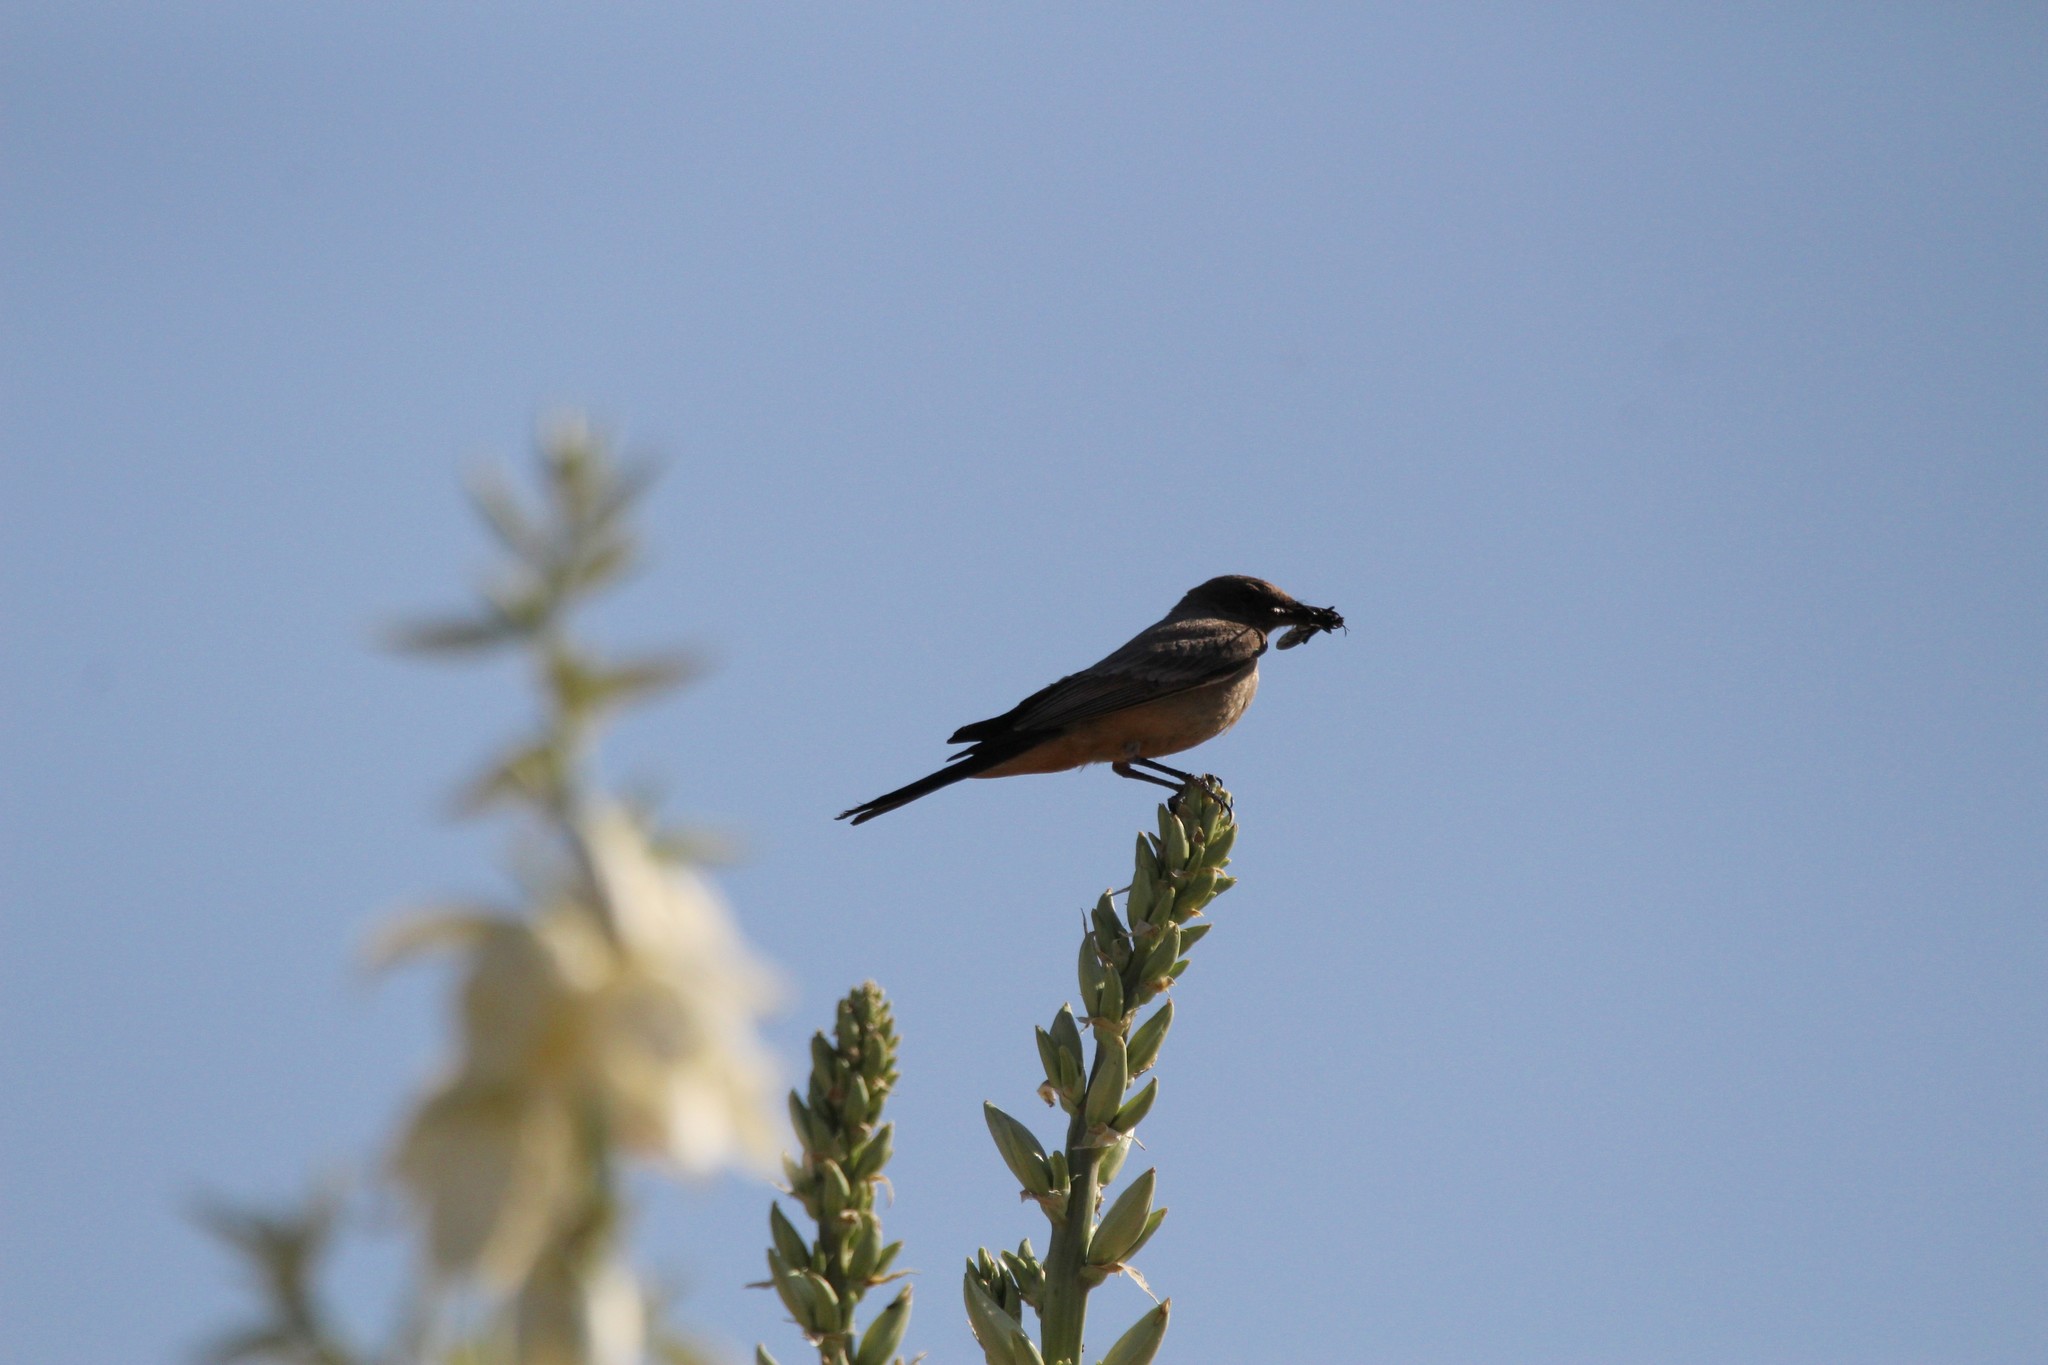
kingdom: Animalia
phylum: Chordata
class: Aves
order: Passeriformes
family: Tyrannidae
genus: Sayornis
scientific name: Sayornis saya
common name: Say's phoebe
